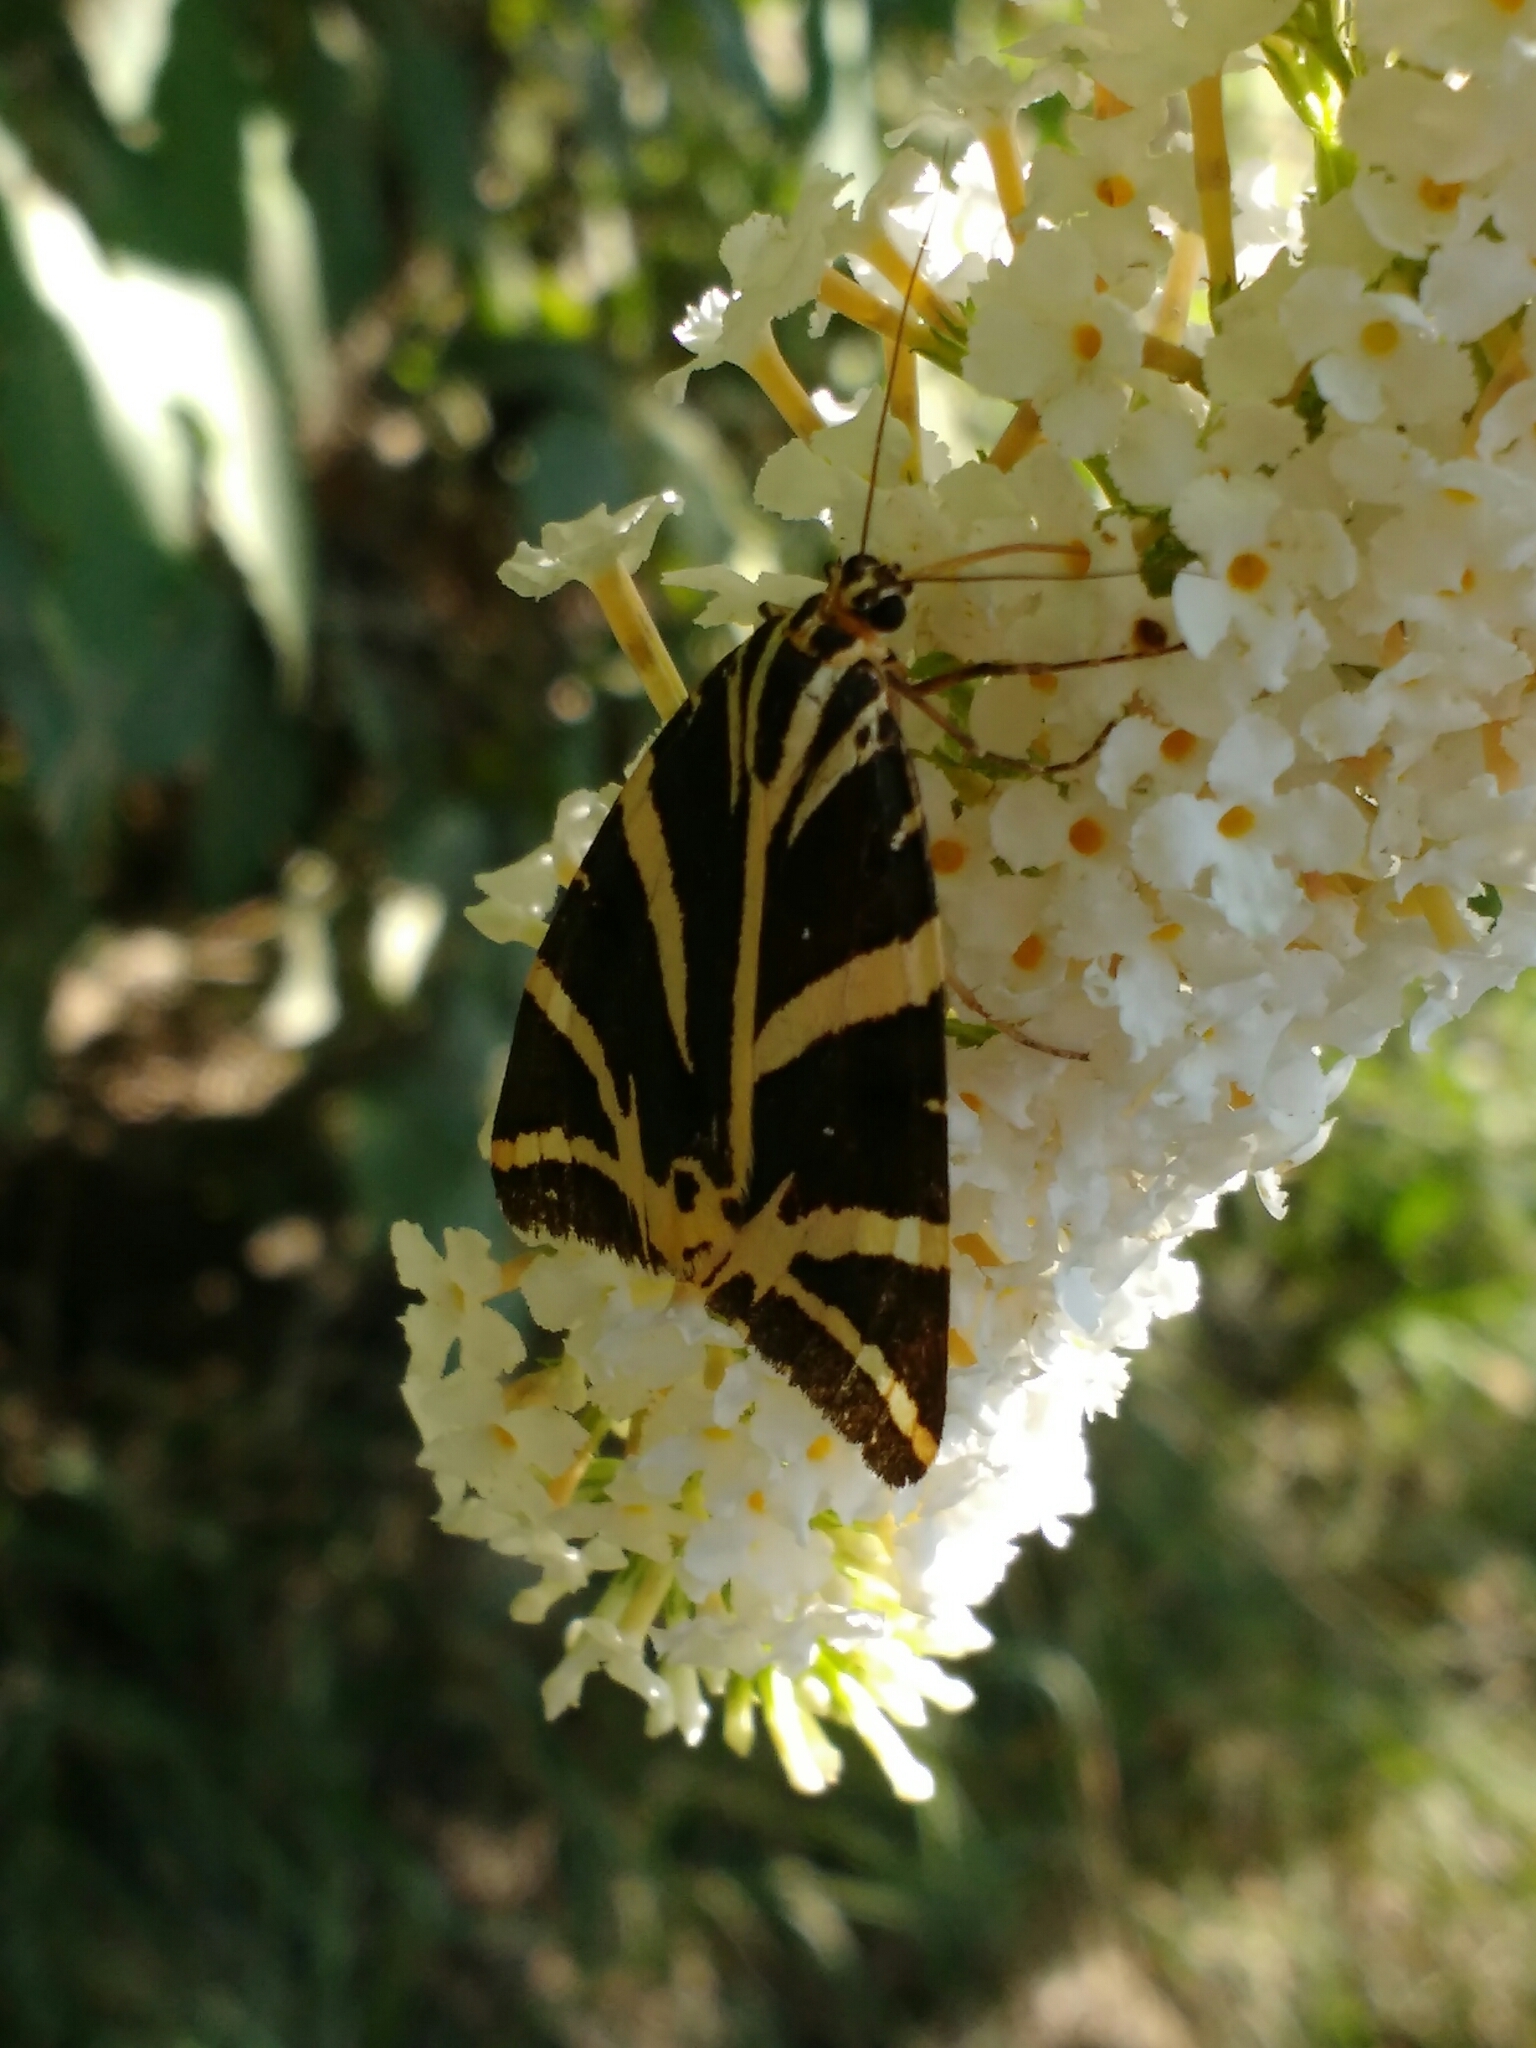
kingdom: Animalia
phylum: Arthropoda
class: Insecta
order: Lepidoptera
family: Erebidae
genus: Euplagia
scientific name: Euplagia quadripunctaria
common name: Jersey tiger
